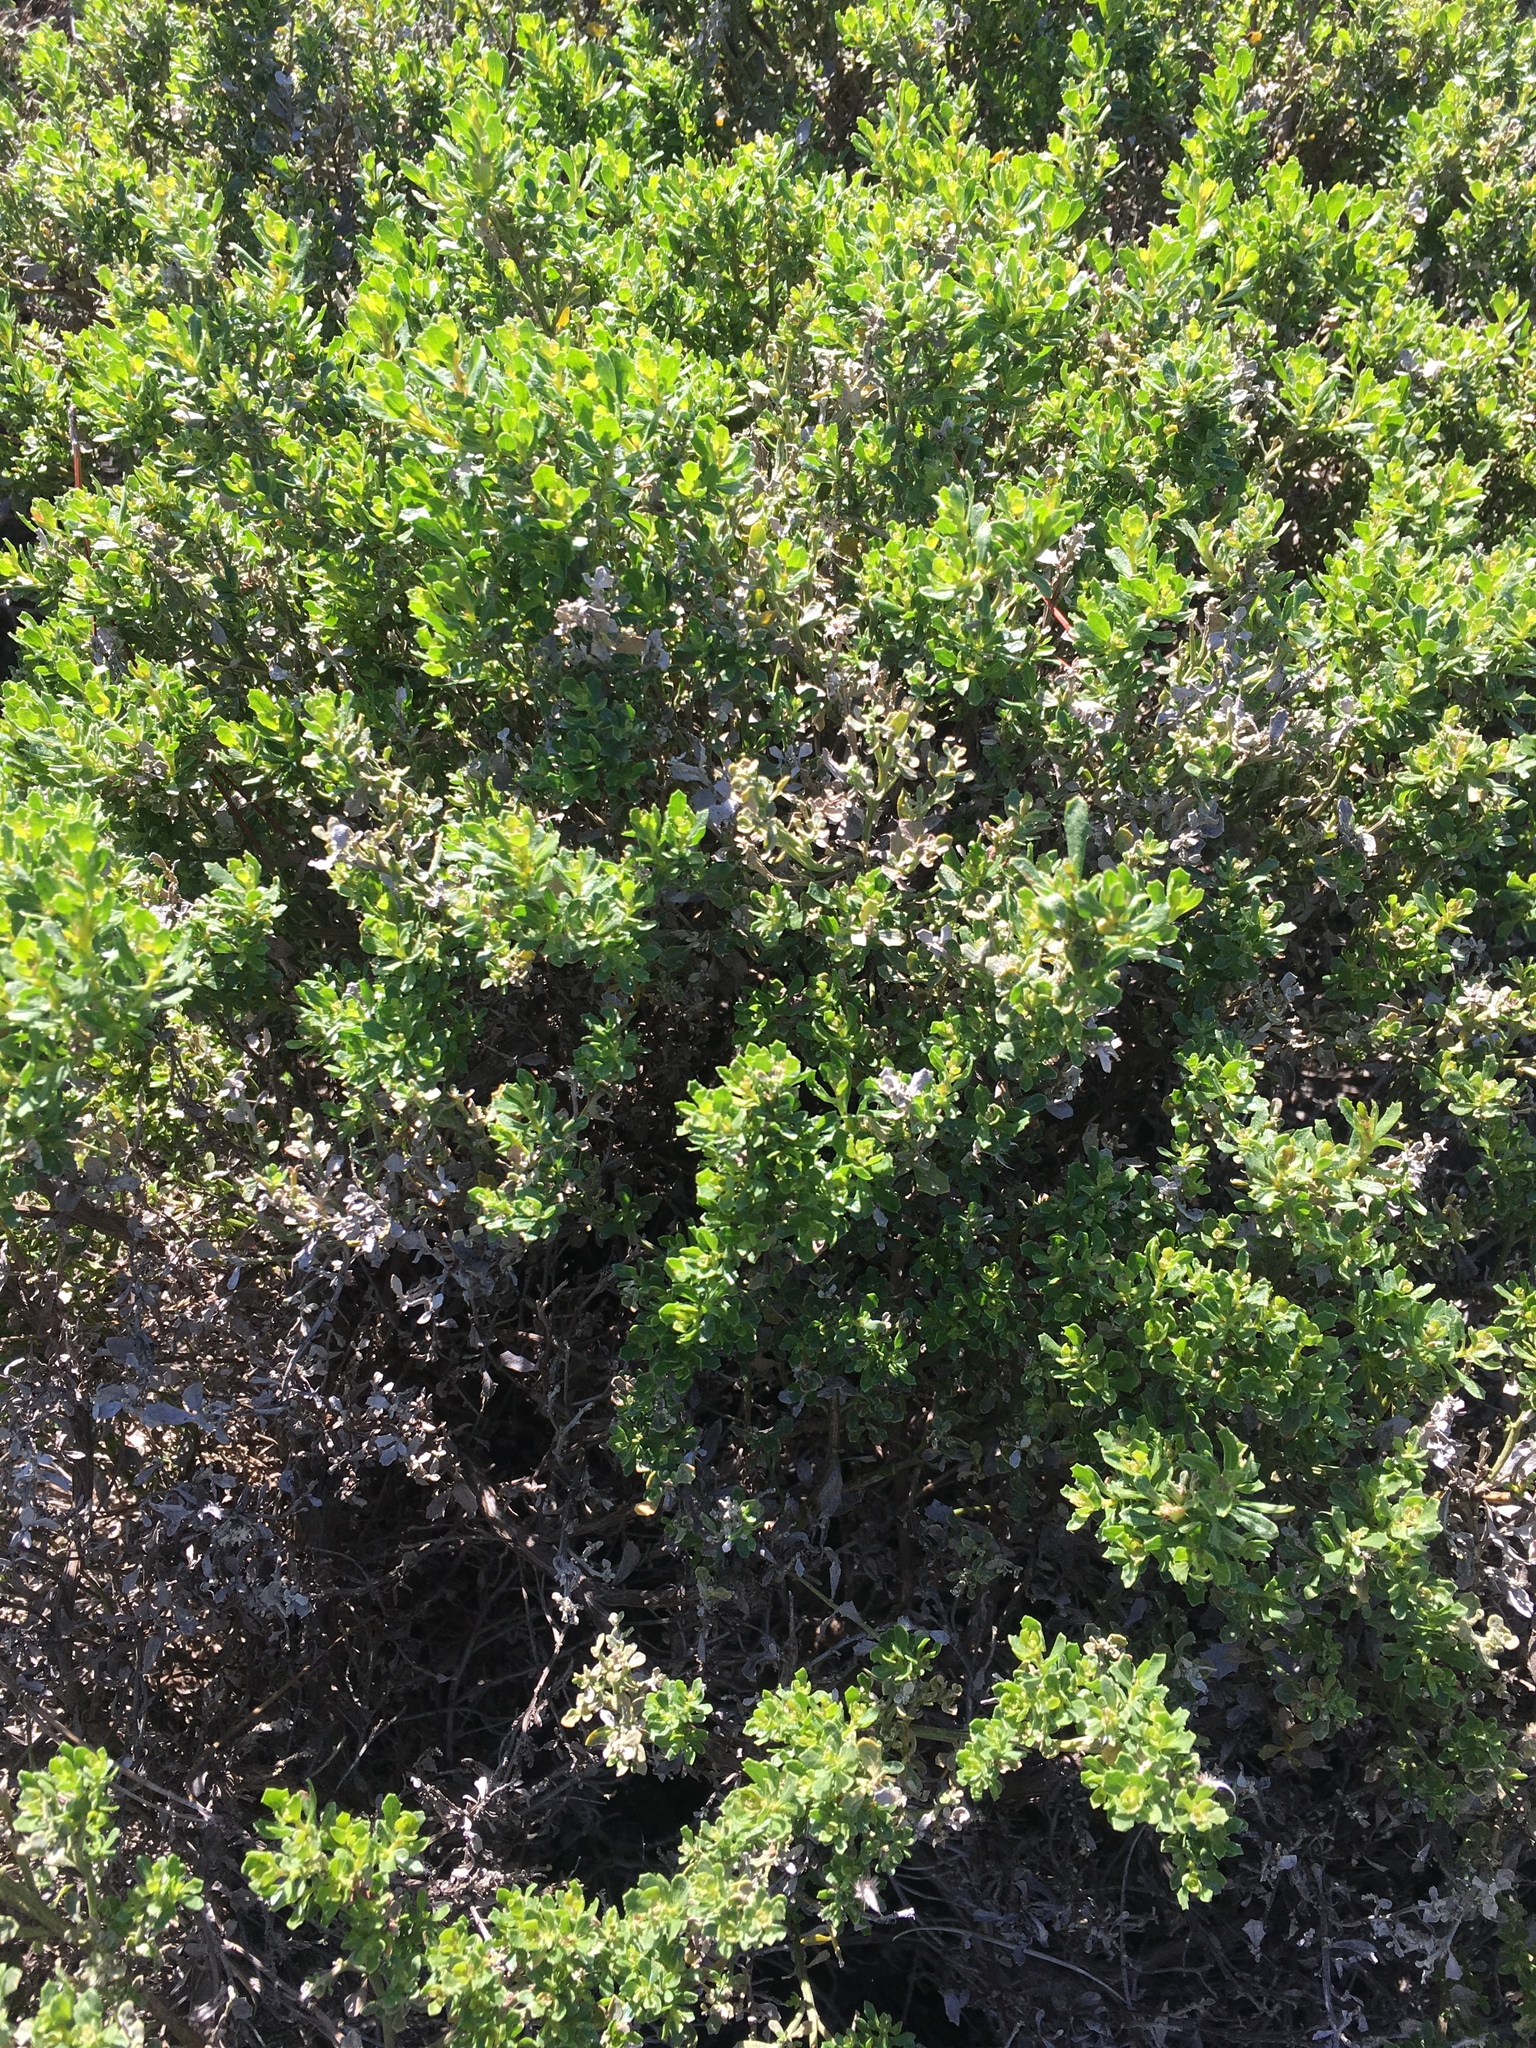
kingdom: Plantae
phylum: Tracheophyta
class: Magnoliopsida
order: Asterales
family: Asteraceae
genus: Baccharis
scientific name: Baccharis pilularis
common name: Coyotebrush
